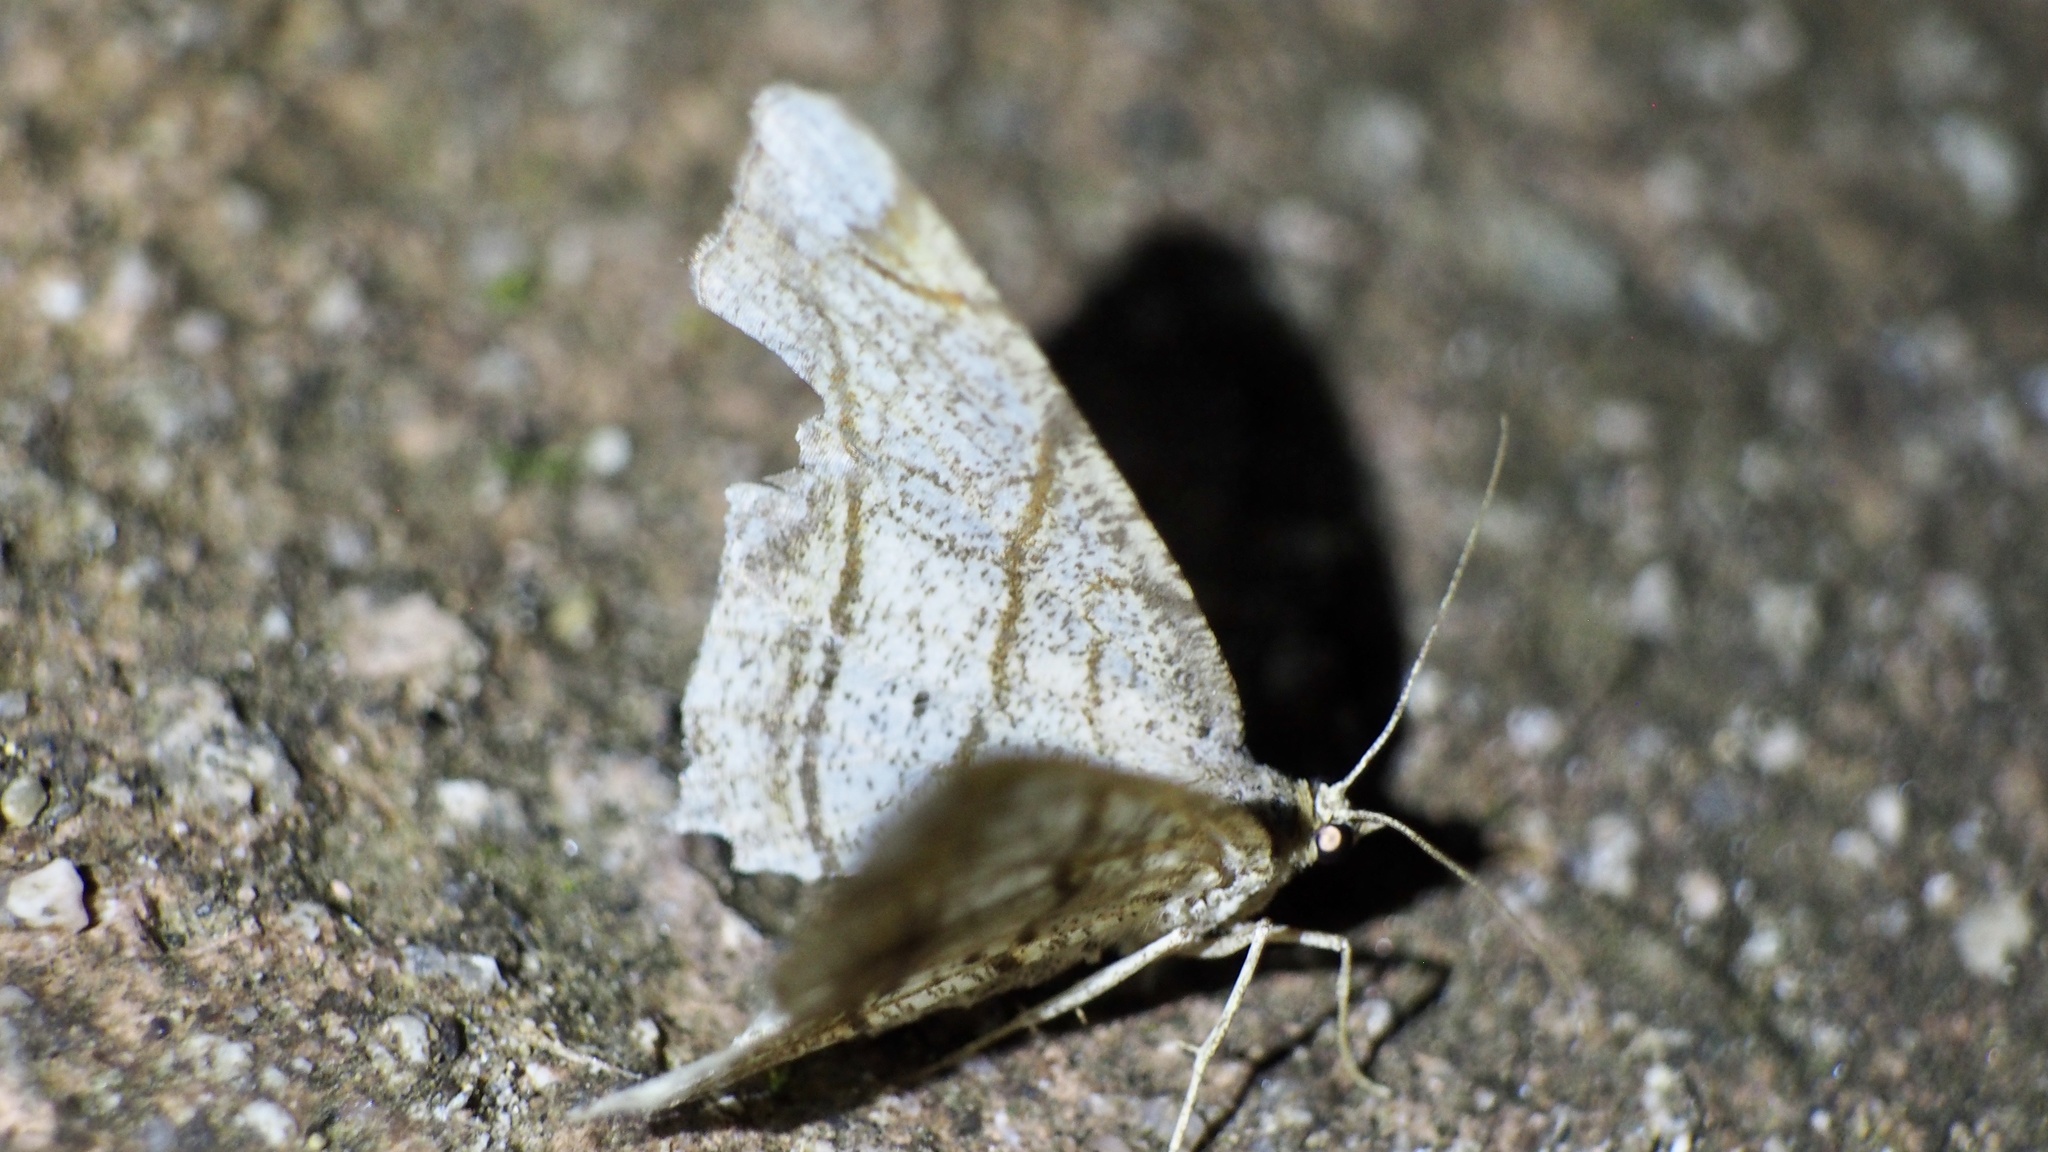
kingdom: Animalia
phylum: Arthropoda
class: Insecta
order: Lepidoptera
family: Geometridae
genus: Chiasmia
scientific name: Chiasmia defixaria
